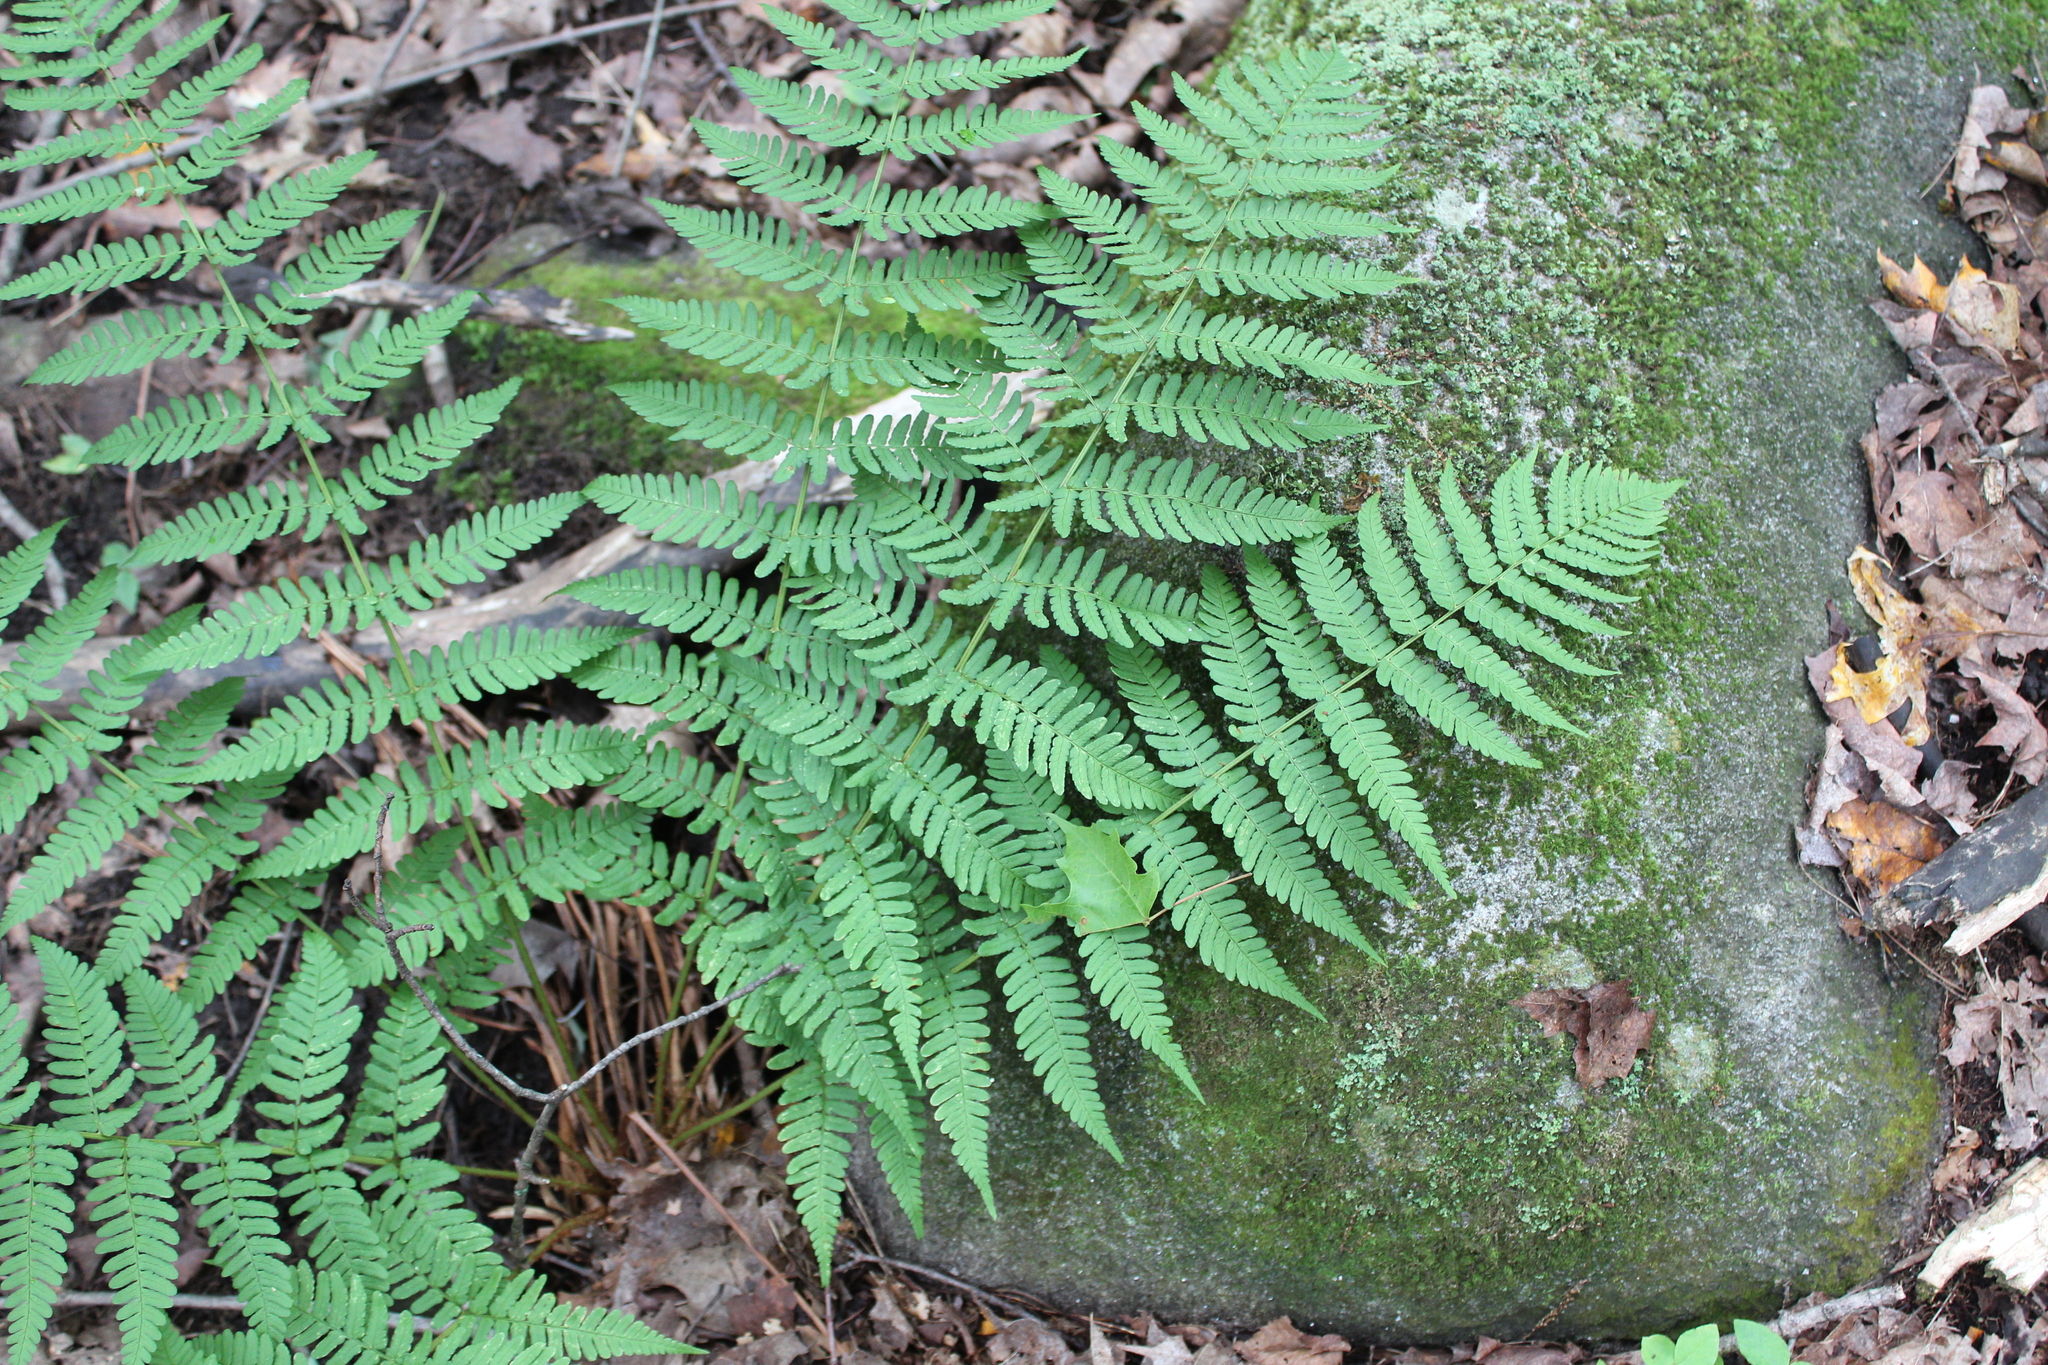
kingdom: Plantae
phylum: Tracheophyta
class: Polypodiopsida
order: Polypodiales
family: Dryopteridaceae
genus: Dryopteris
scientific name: Dryopteris marginalis
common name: Marginal wood fern
